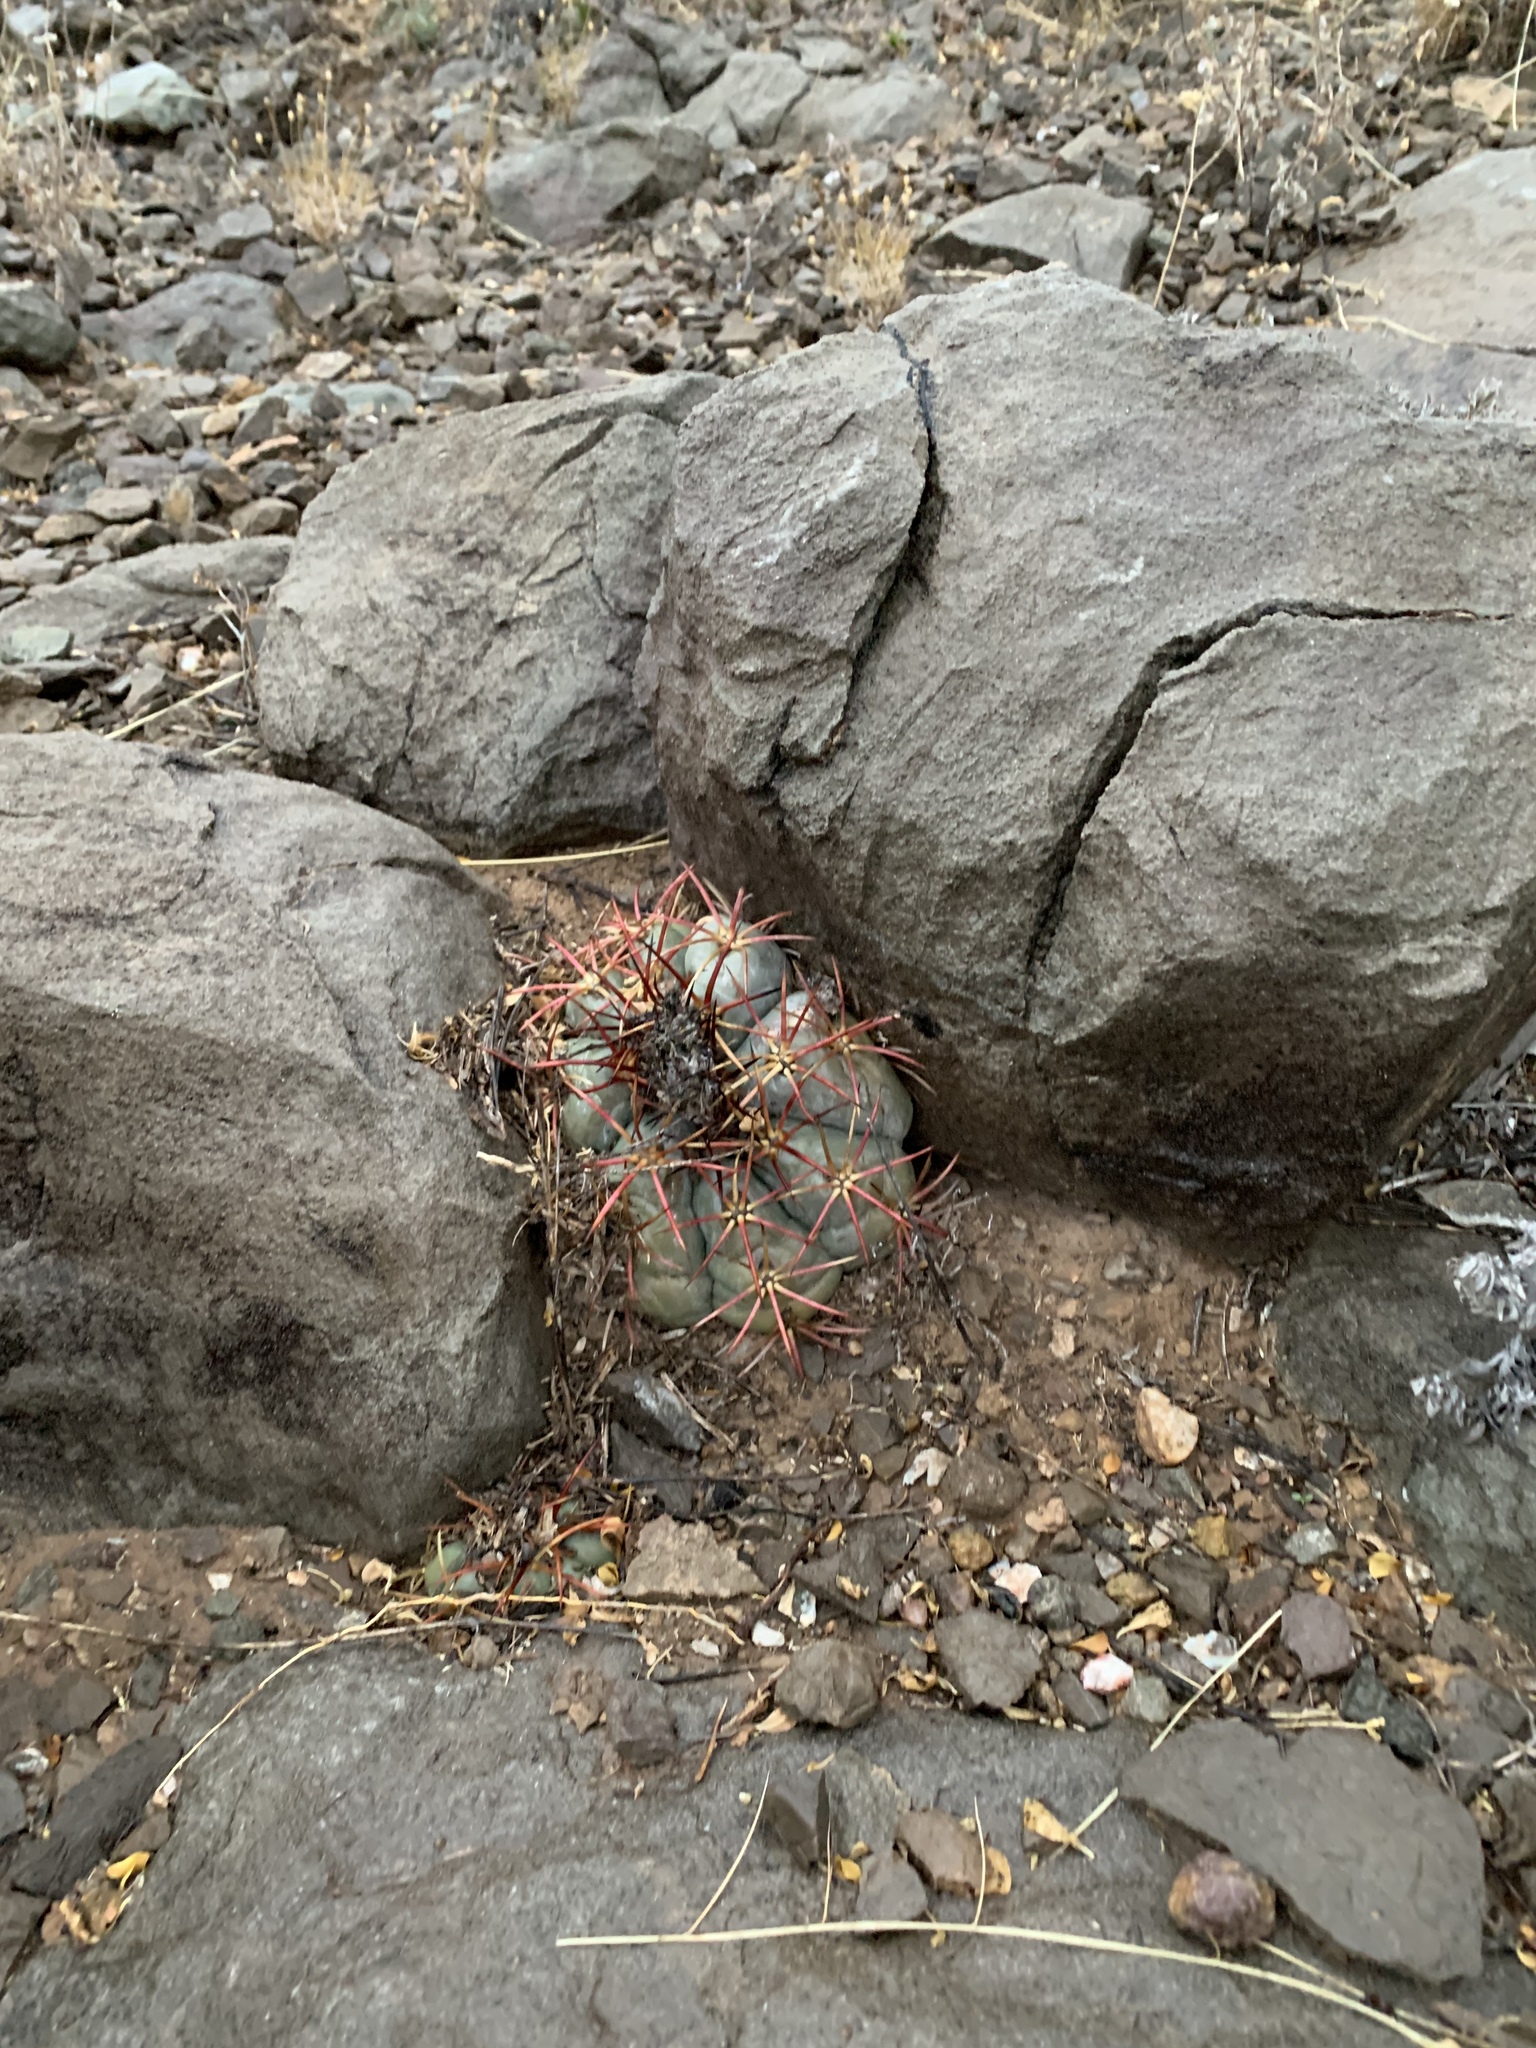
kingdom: Plantae
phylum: Tracheophyta
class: Magnoliopsida
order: Caryophyllales
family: Cactaceae
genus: Echinocactus
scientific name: Echinocactus horizonthalonius
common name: Devilshead
